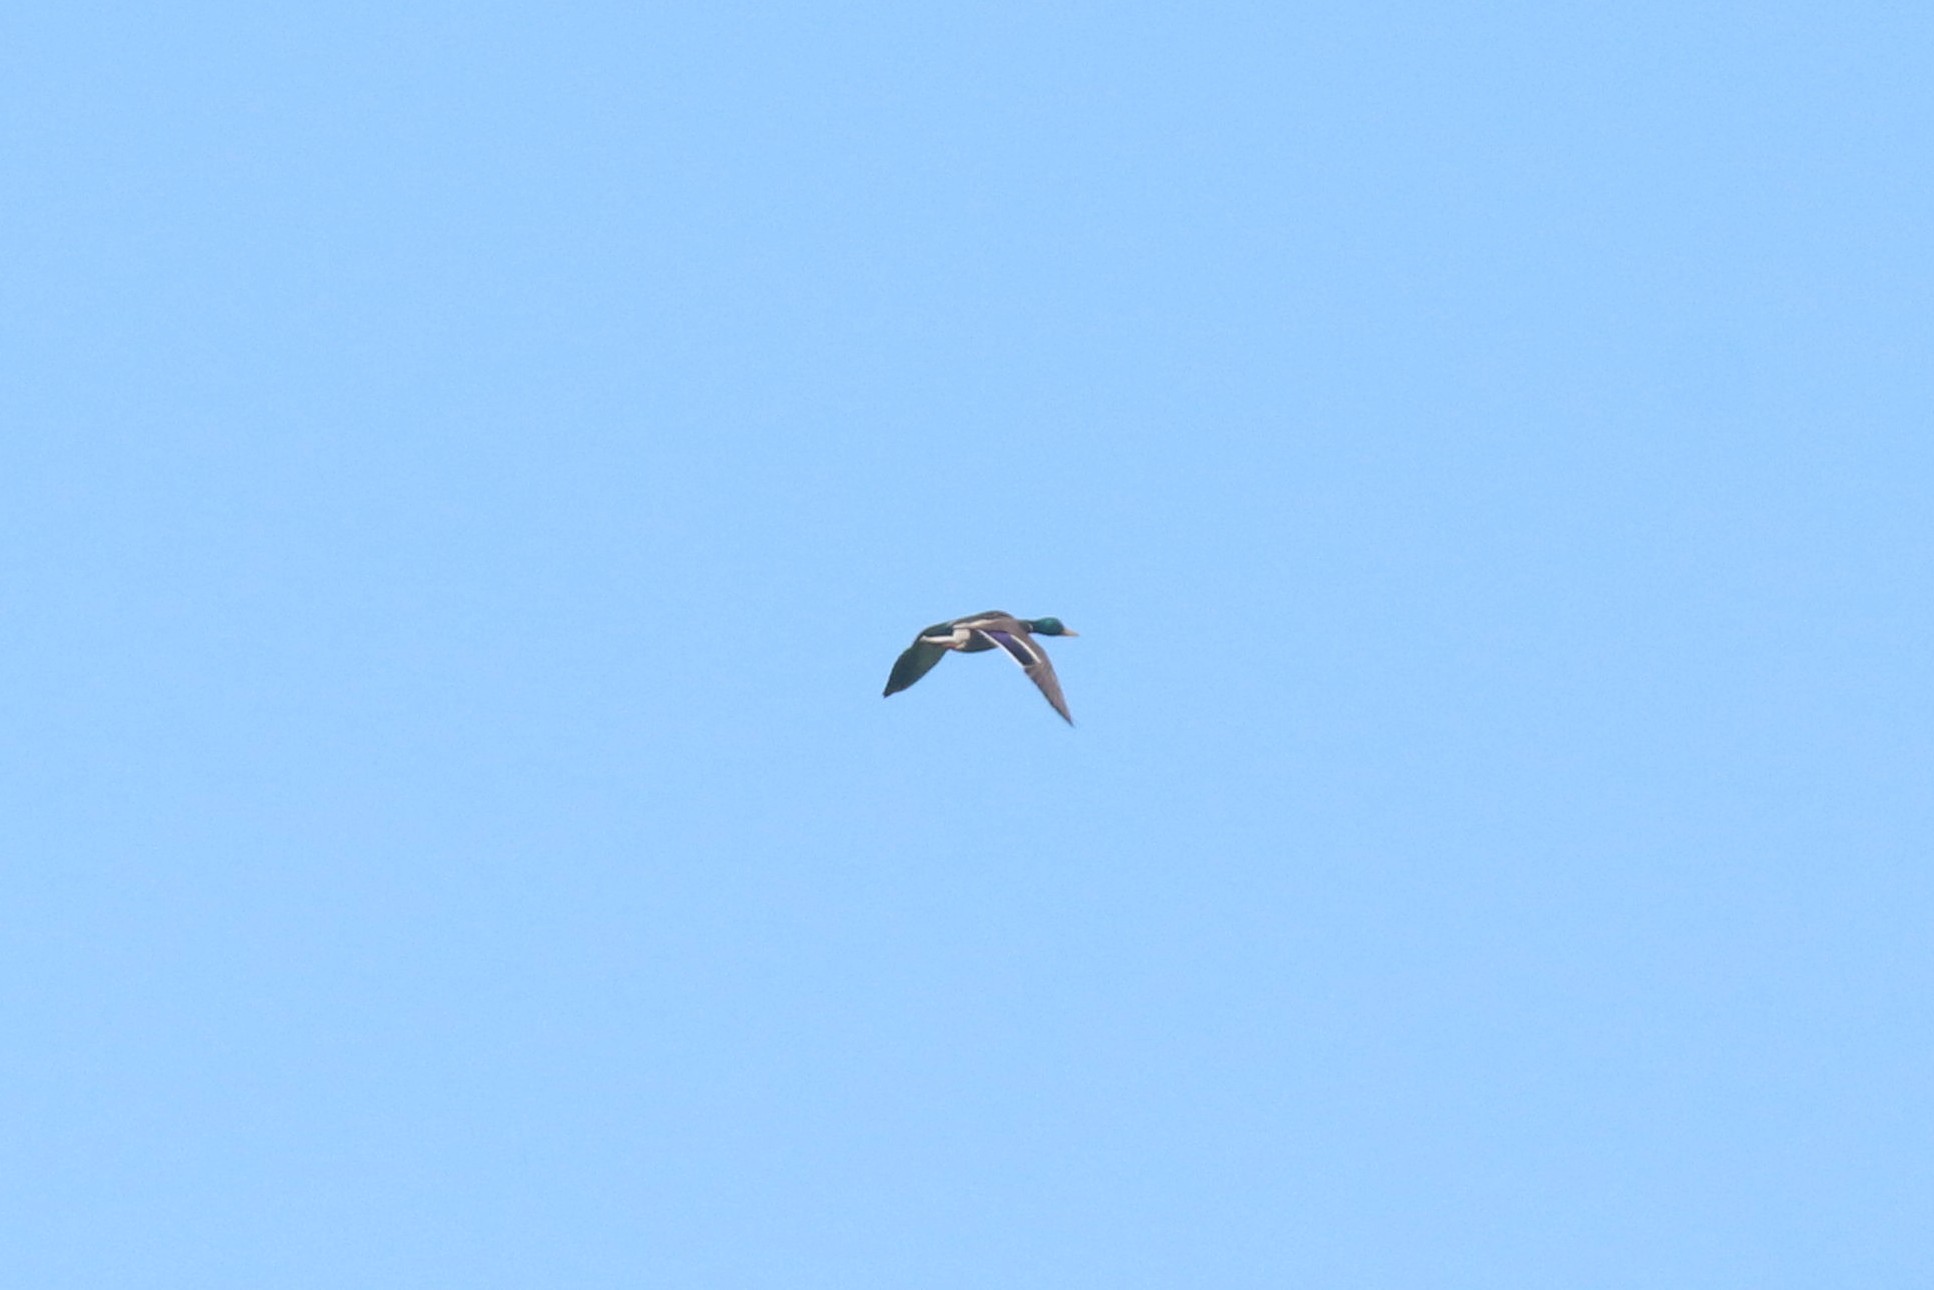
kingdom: Animalia
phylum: Chordata
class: Aves
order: Anseriformes
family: Anatidae
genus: Anas
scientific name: Anas platyrhynchos
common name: Mallard
